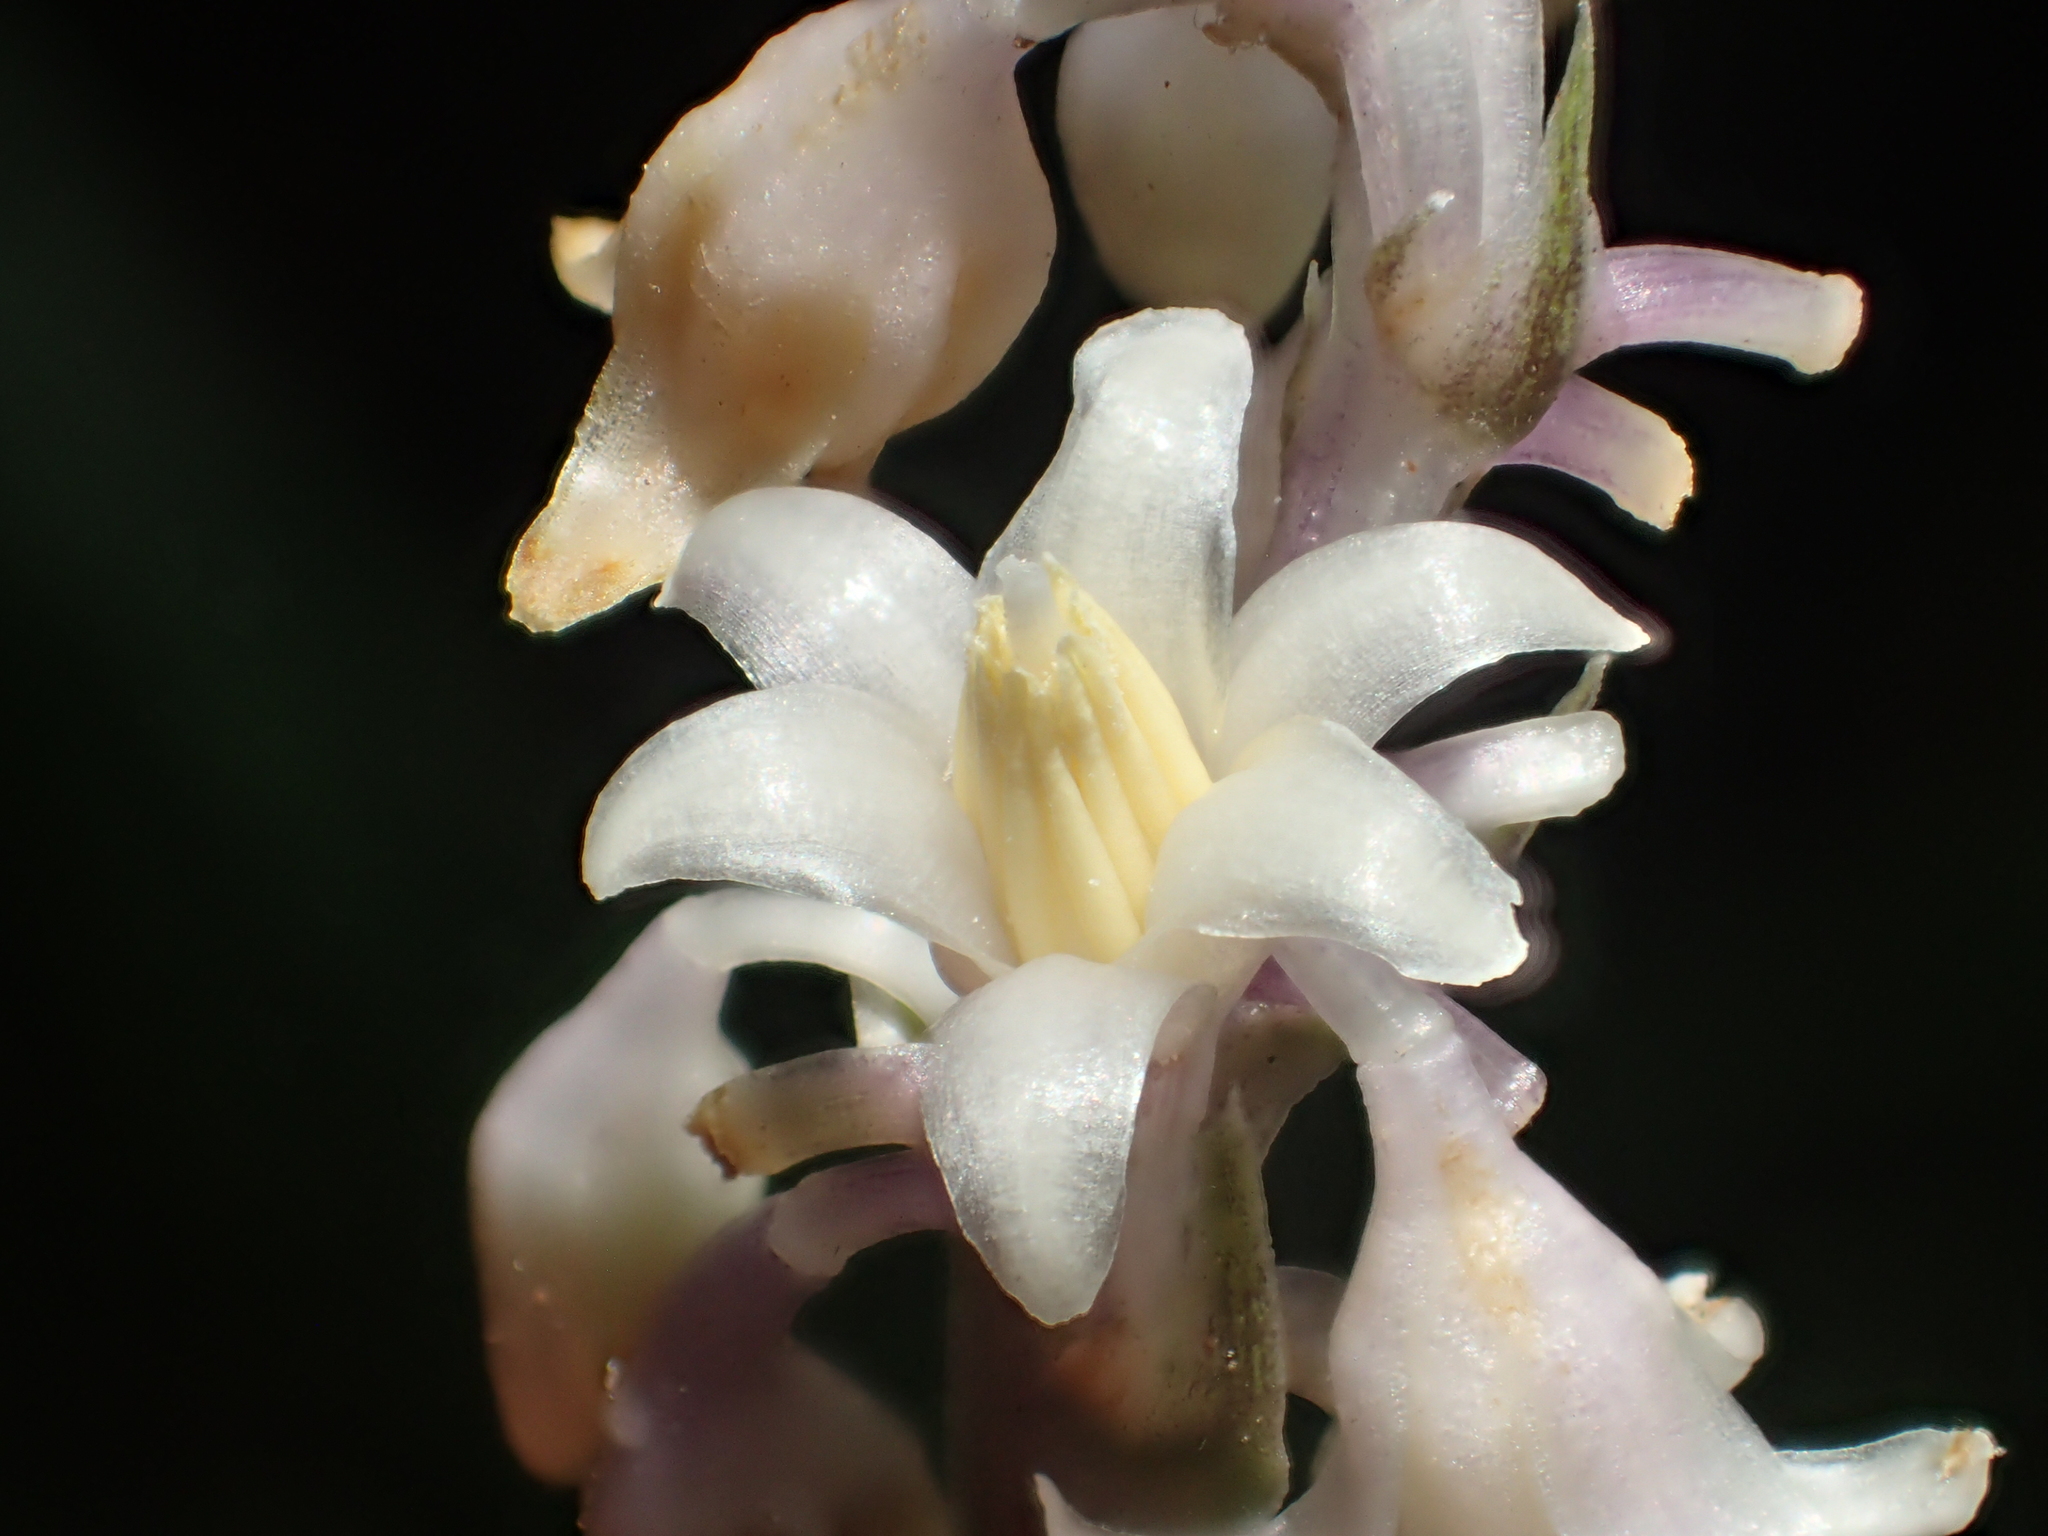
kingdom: Plantae
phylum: Tracheophyta
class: Liliopsida
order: Asparagales
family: Asparagaceae
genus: Ophiopogon
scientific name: Ophiopogon reversus
